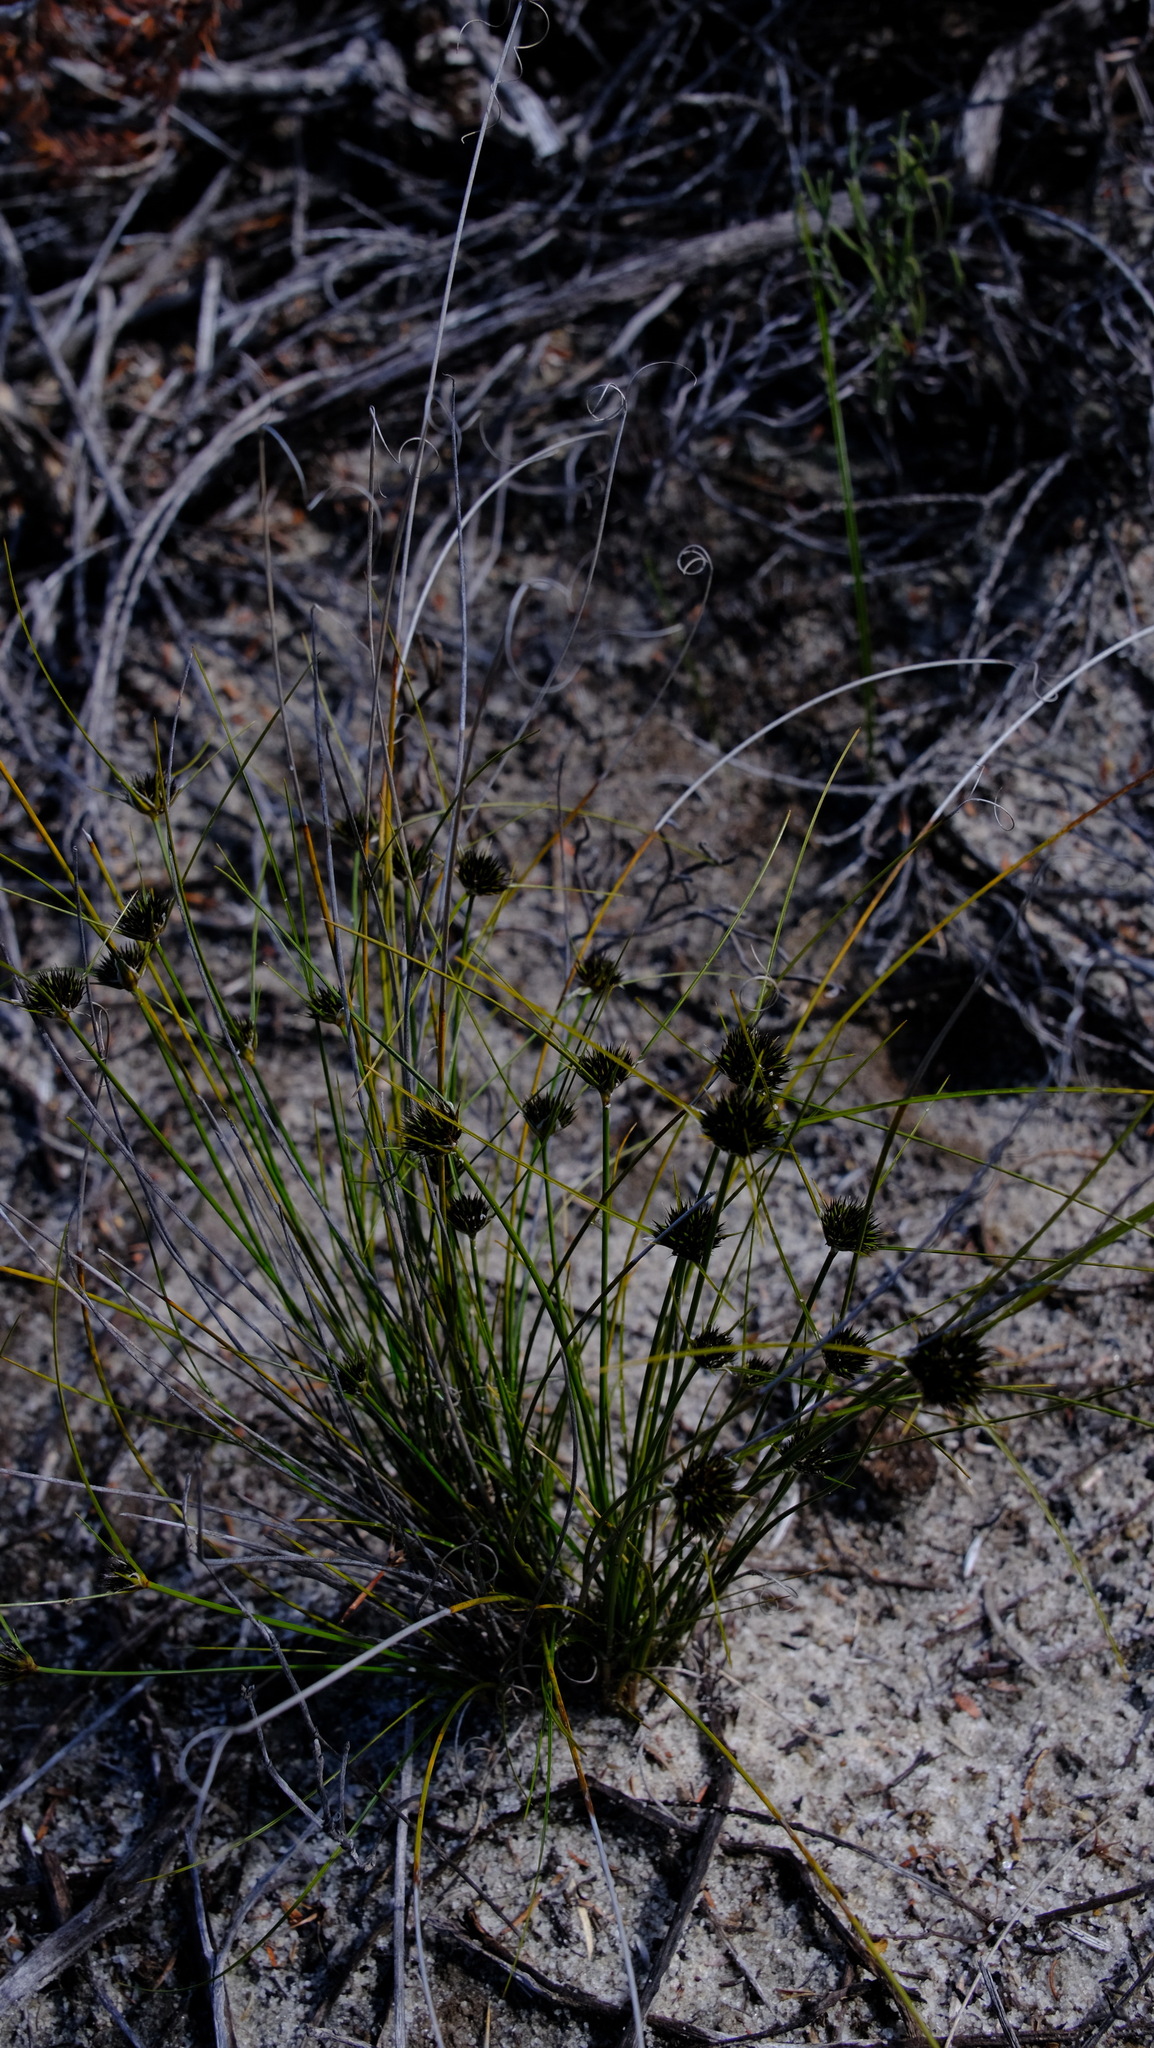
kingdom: Plantae
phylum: Tracheophyta
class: Liliopsida
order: Poales
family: Cyperaceae
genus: Schoenus
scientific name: Schoenus curvifolius
